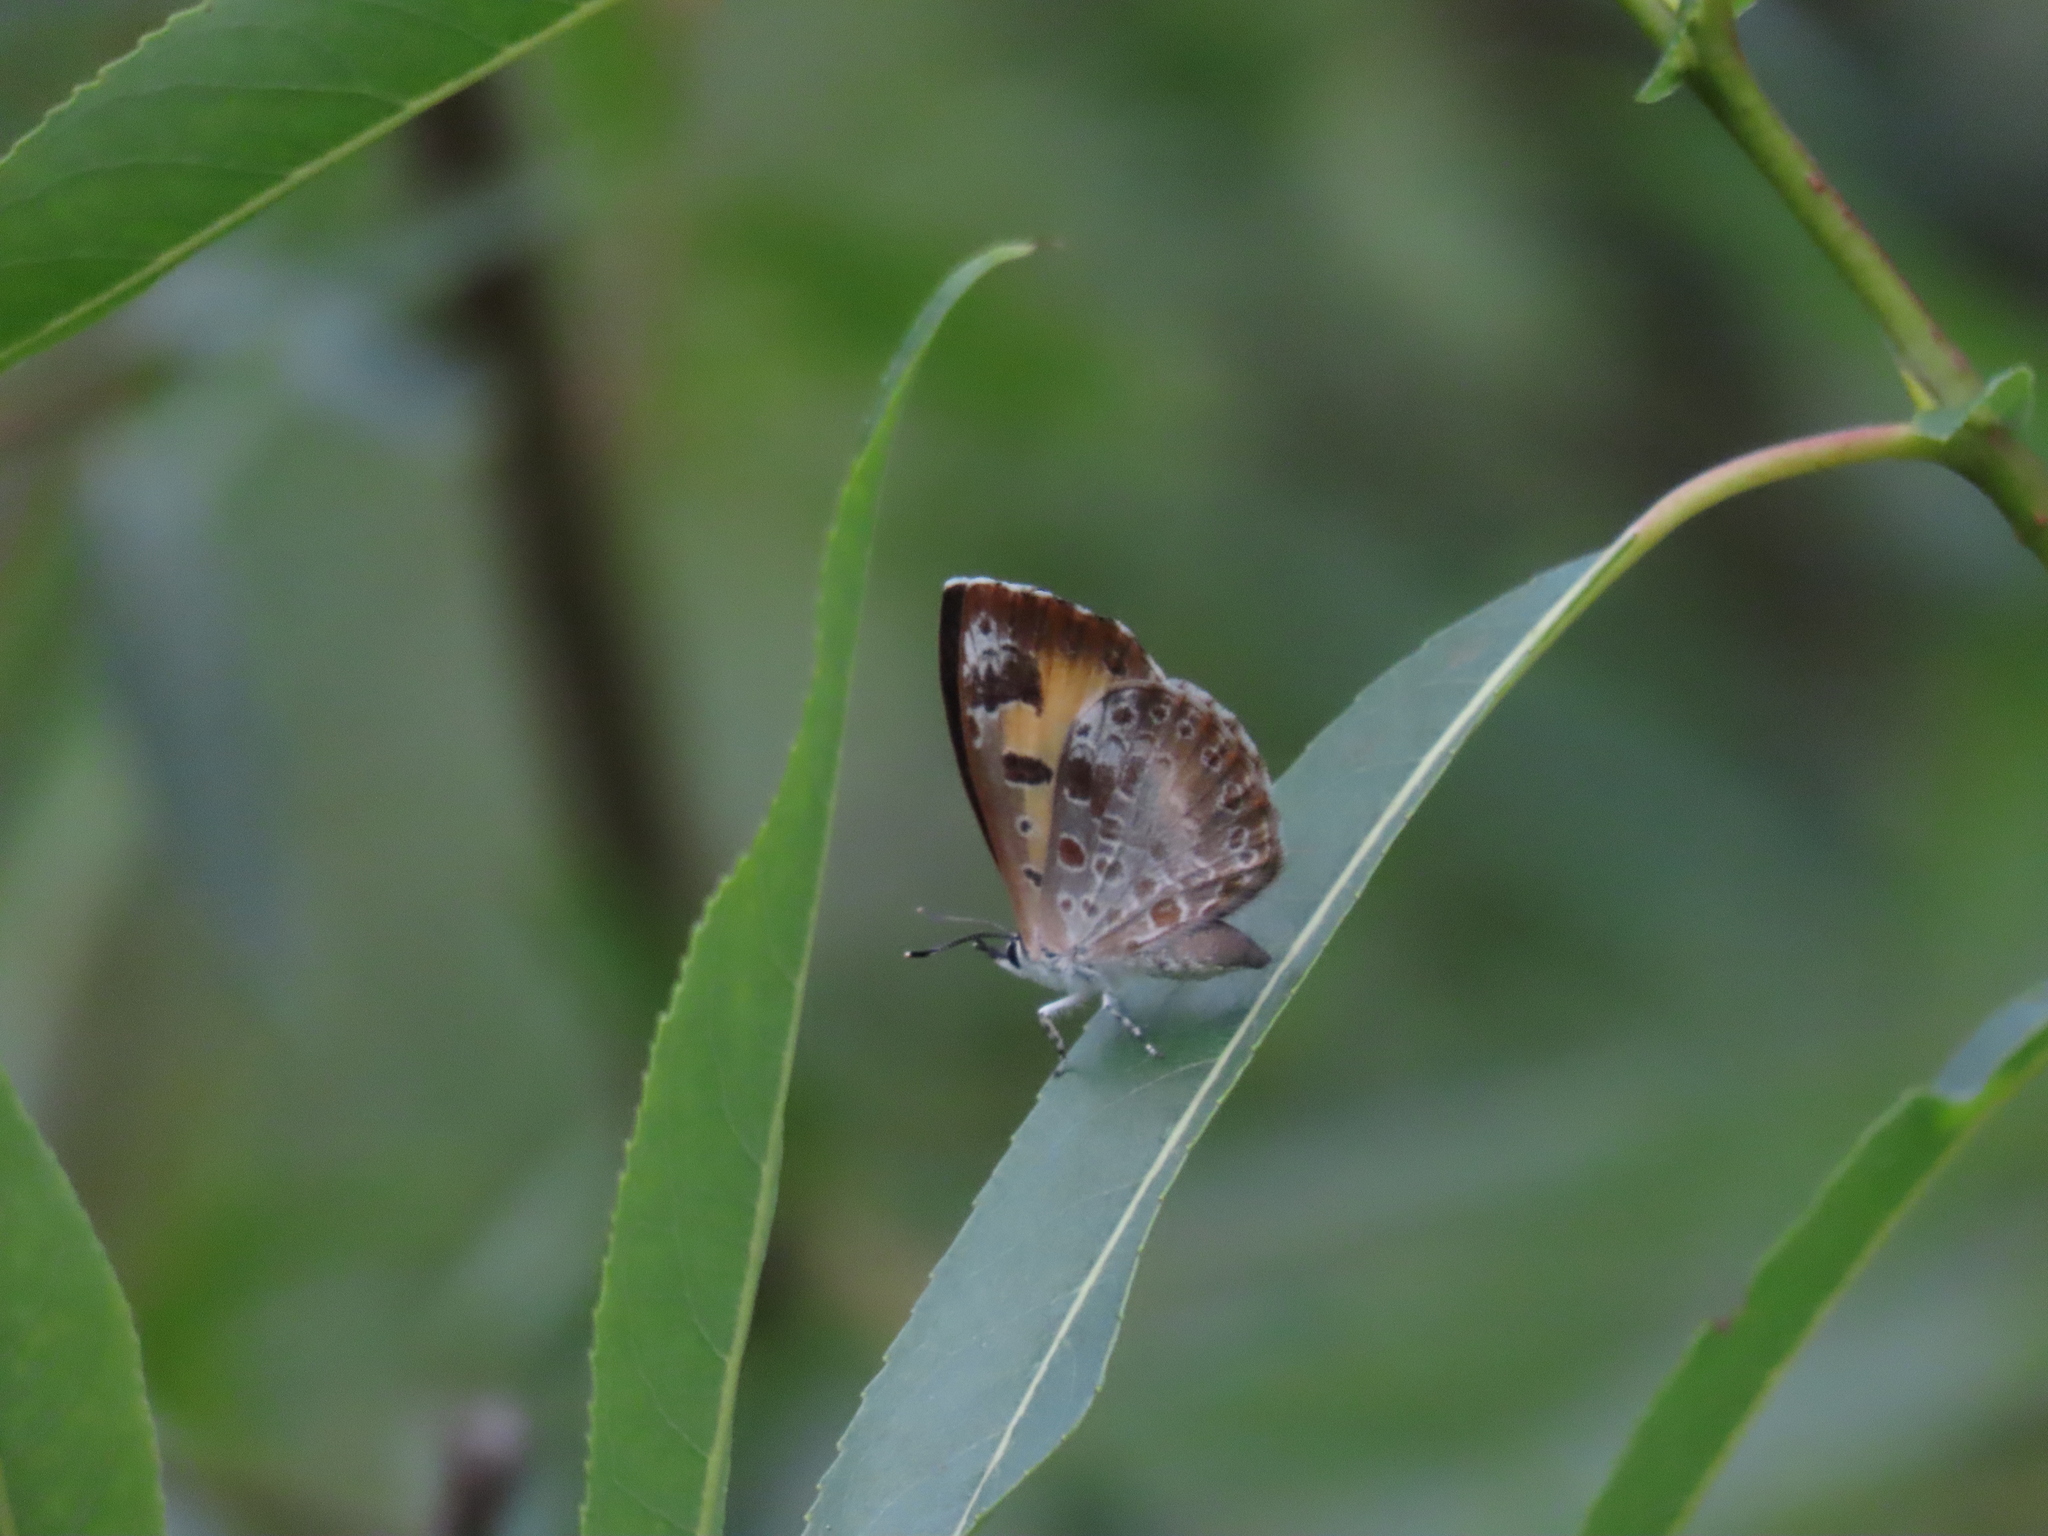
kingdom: Animalia
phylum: Arthropoda
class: Insecta
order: Lepidoptera
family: Lycaenidae
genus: Feniseca
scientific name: Feniseca tarquinius
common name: Harvester
